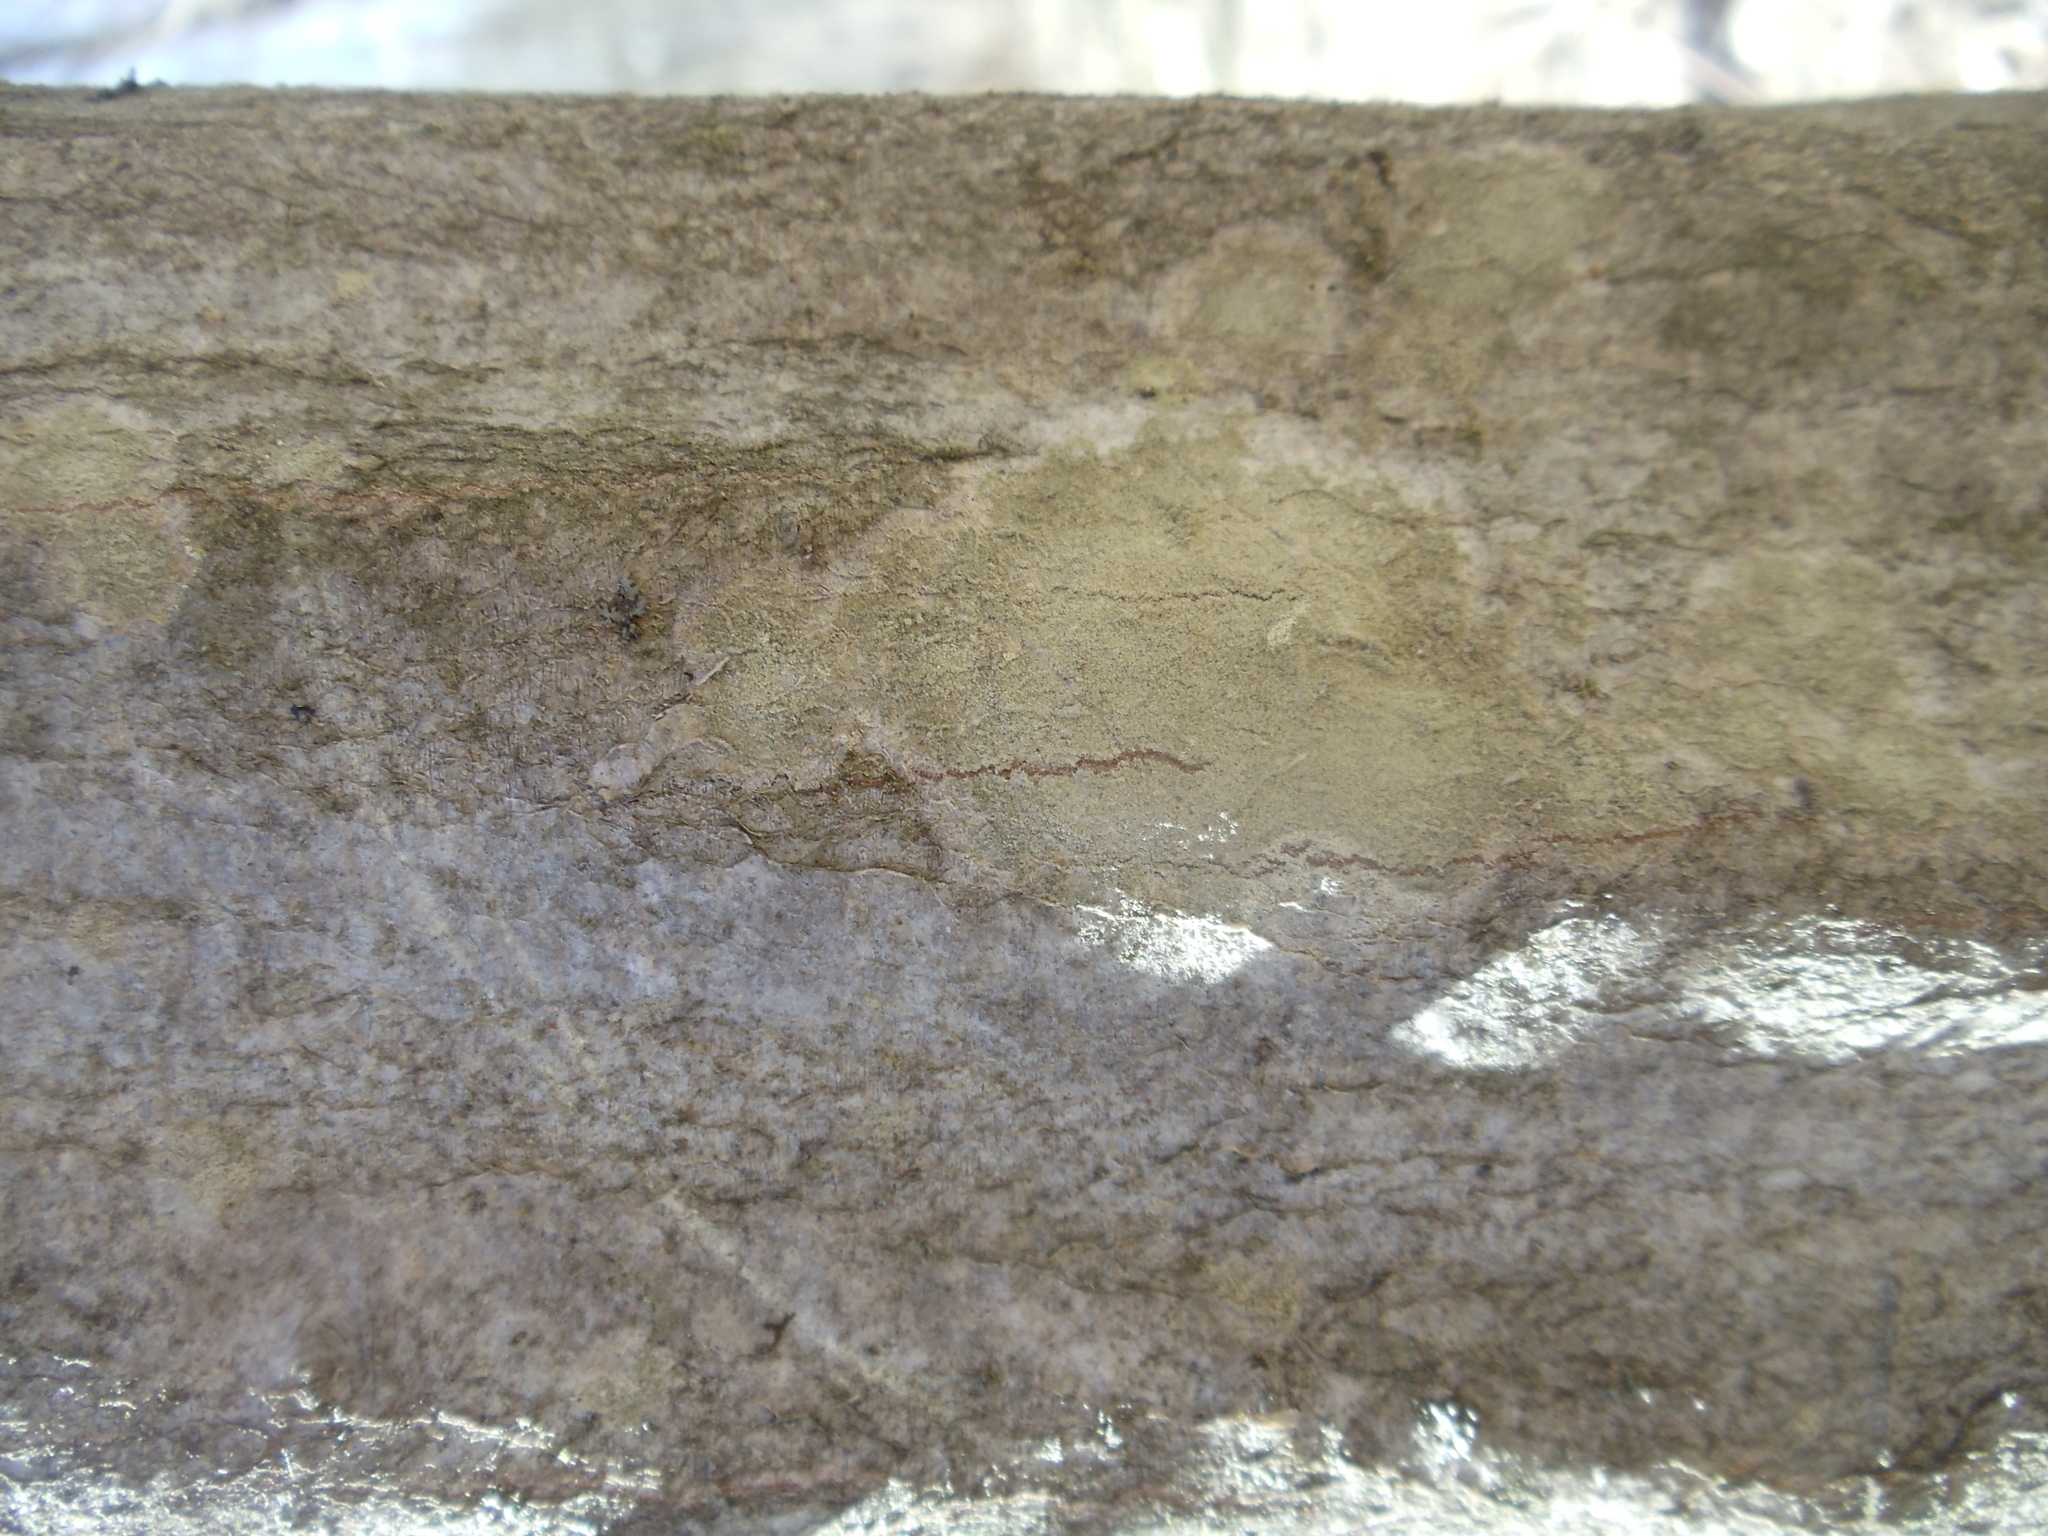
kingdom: Fungi
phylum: Ascomycota
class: Lecanoromycetes
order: Pertusariales
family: Pertusariaceae
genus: Verseghya
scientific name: Verseghya thysanophora
